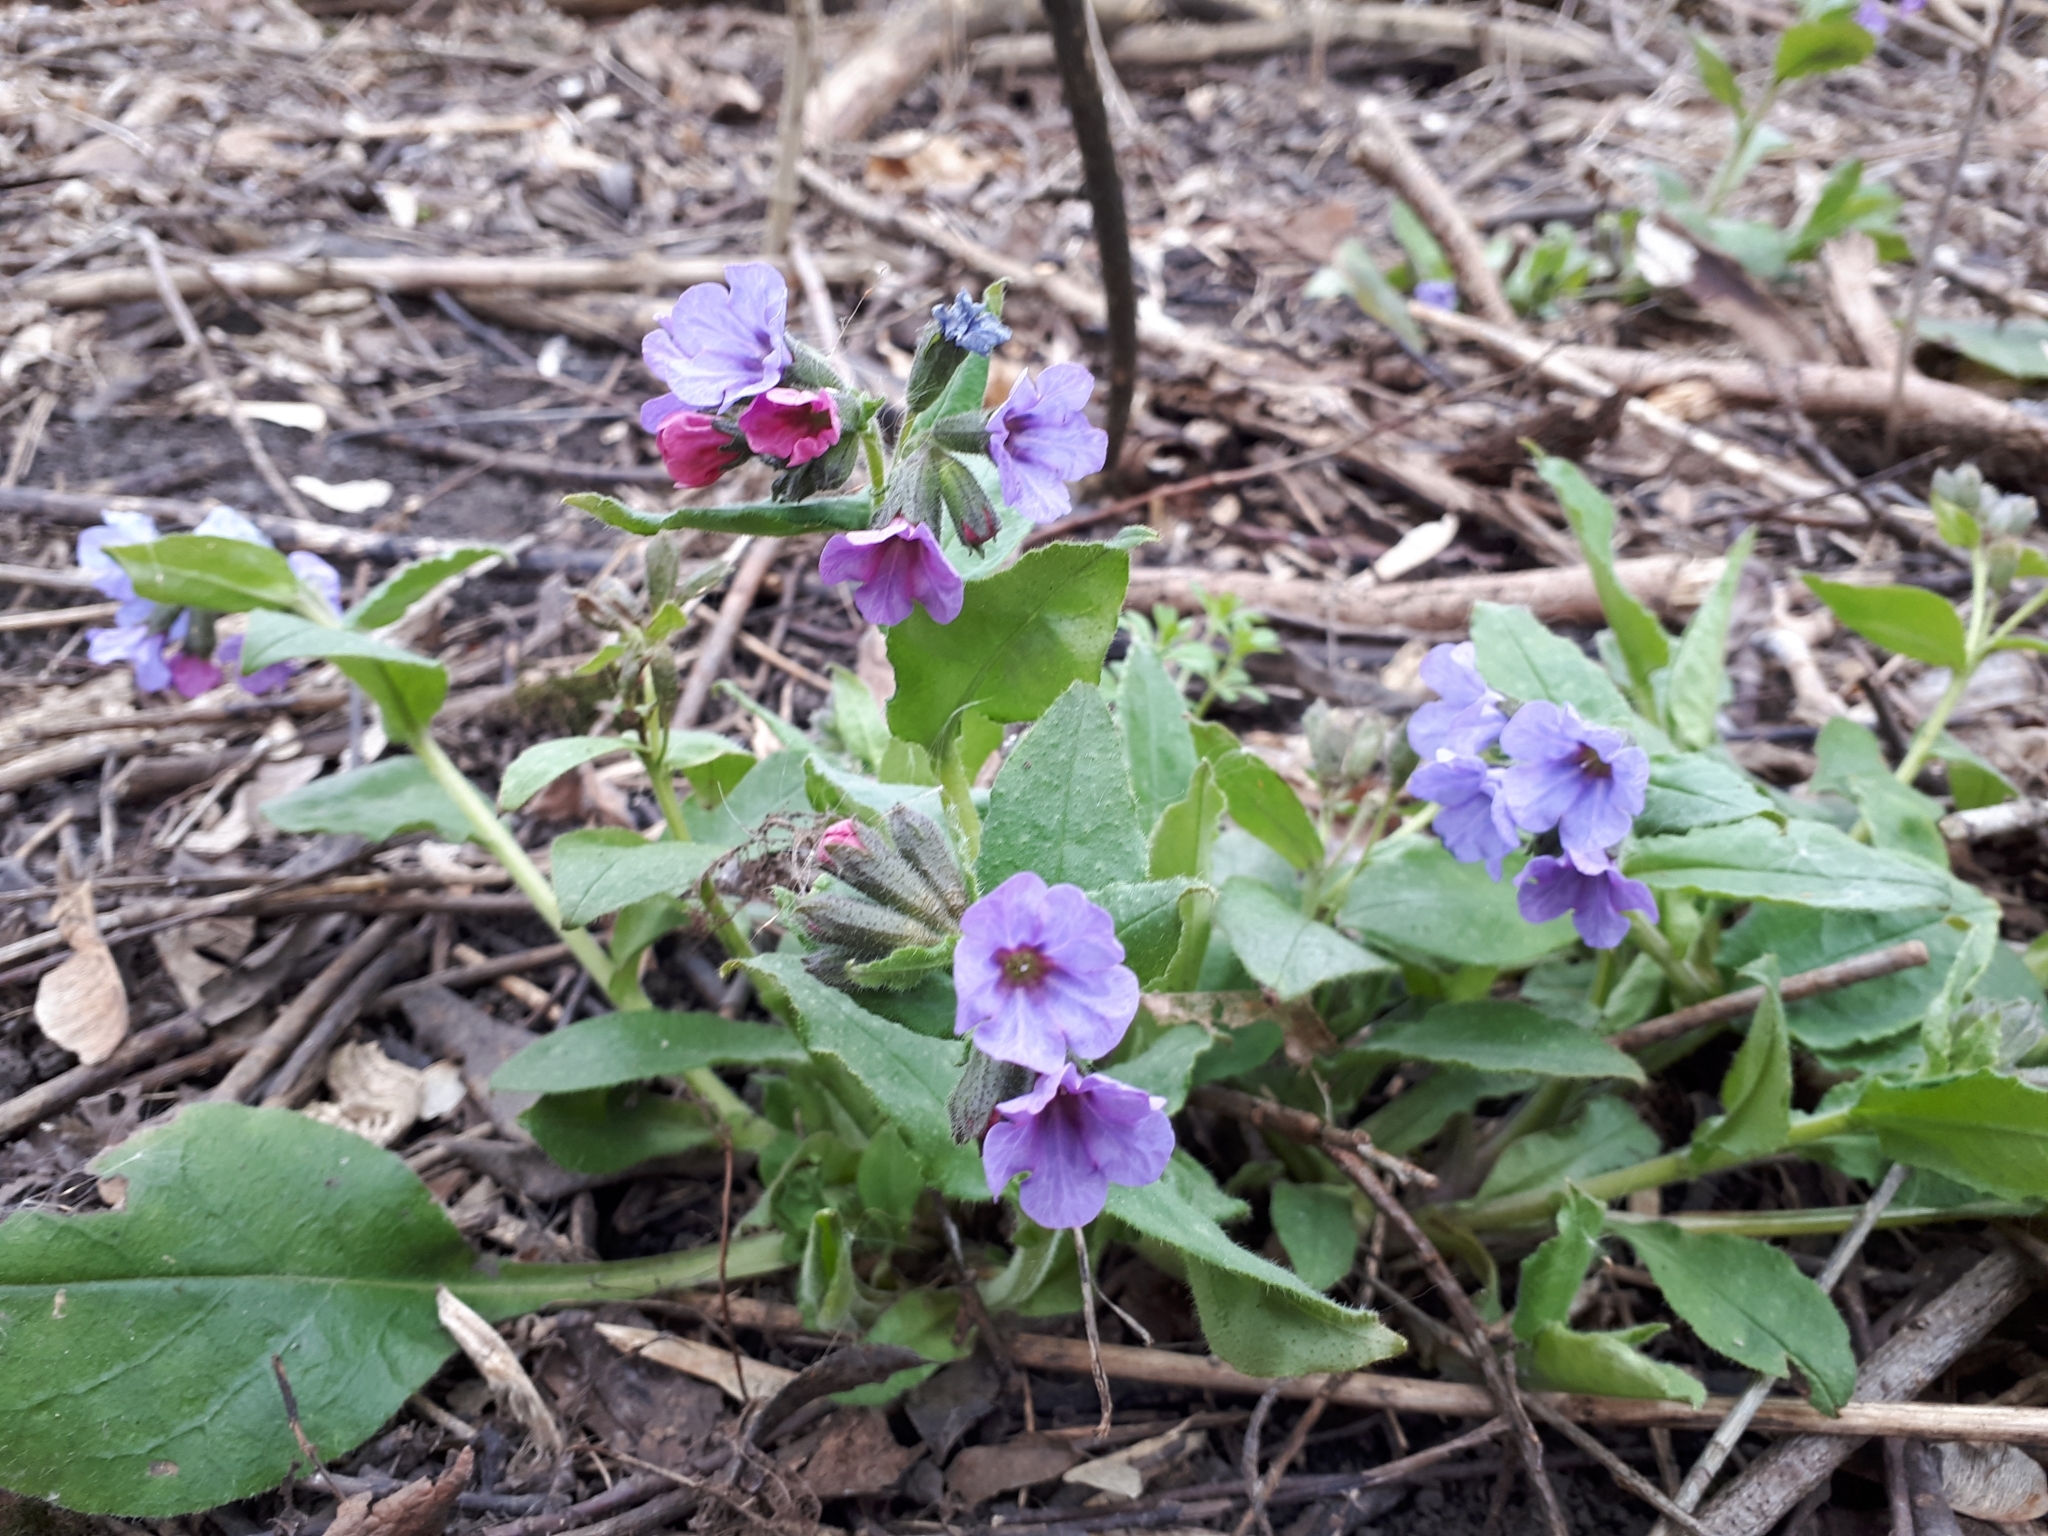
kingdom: Plantae
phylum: Tracheophyta
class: Magnoliopsida
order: Boraginales
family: Boraginaceae
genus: Pulmonaria
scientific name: Pulmonaria obscura
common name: Suffolk lungwort
